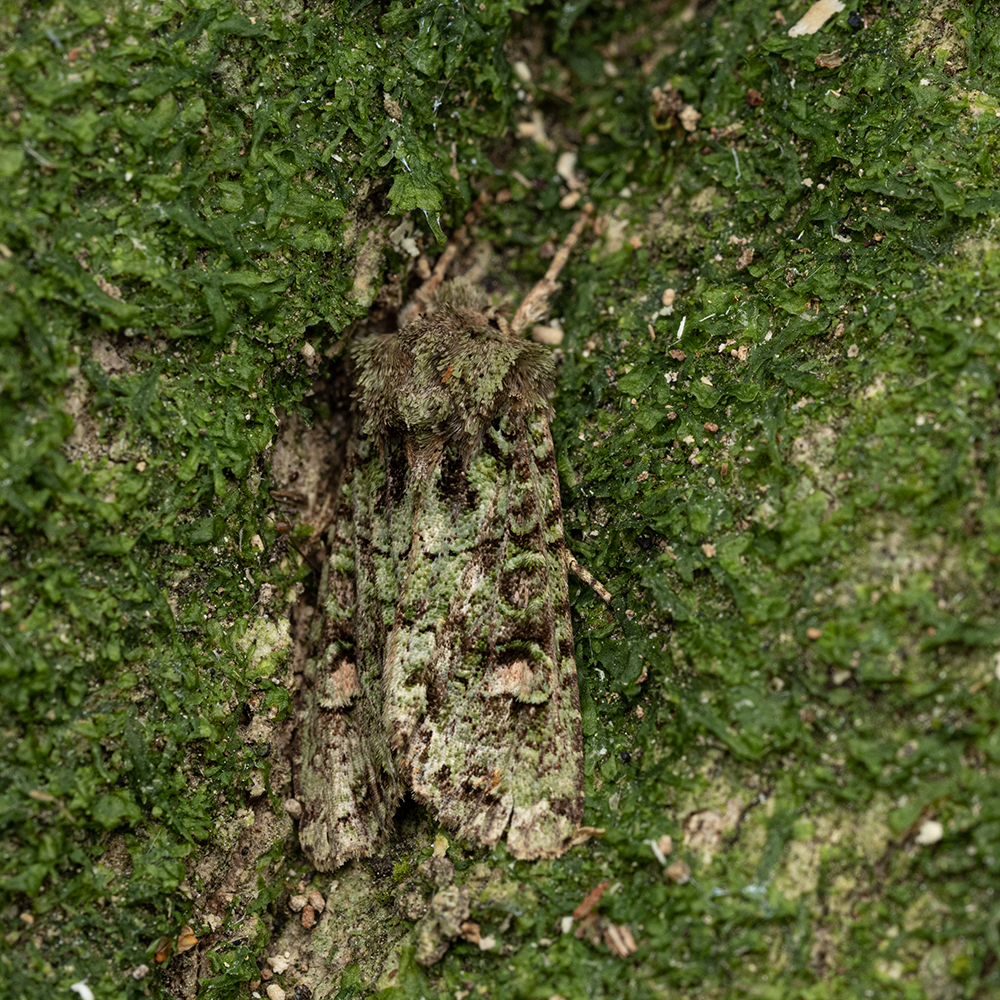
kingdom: Animalia
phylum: Arthropoda
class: Insecta
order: Lepidoptera
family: Noctuidae
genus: Ichneutica
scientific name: Ichneutica
